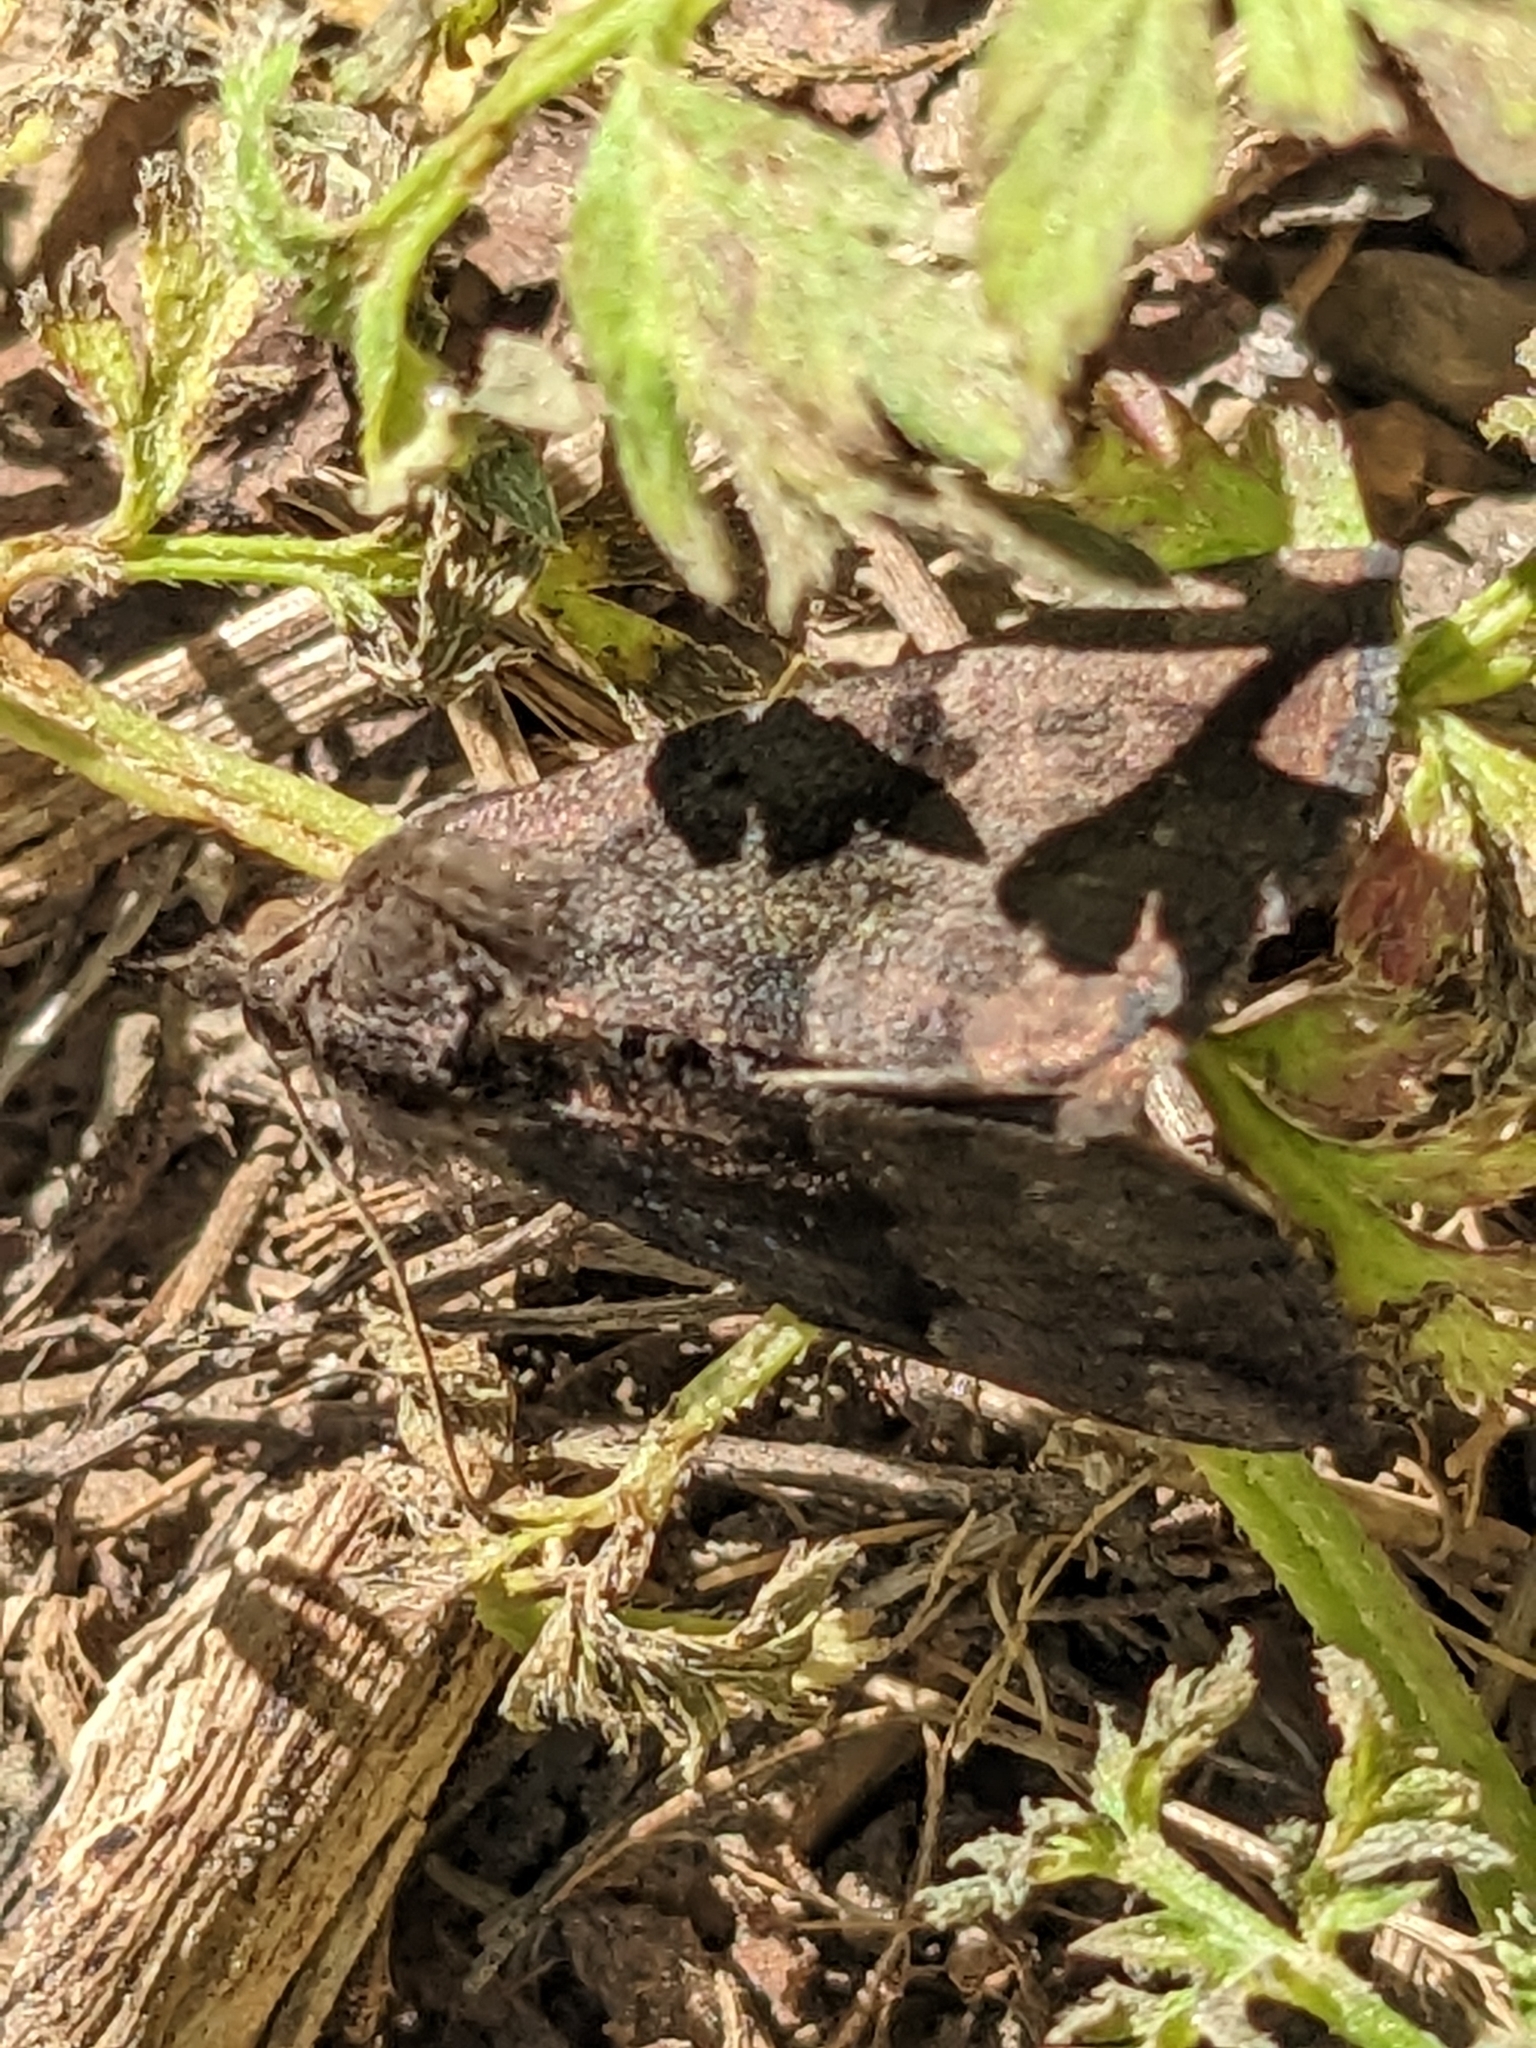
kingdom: Animalia
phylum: Arthropoda
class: Insecta
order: Lepidoptera
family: Erebidae
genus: Hypena
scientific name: Hypena madefactalis
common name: Gray-edged snout
